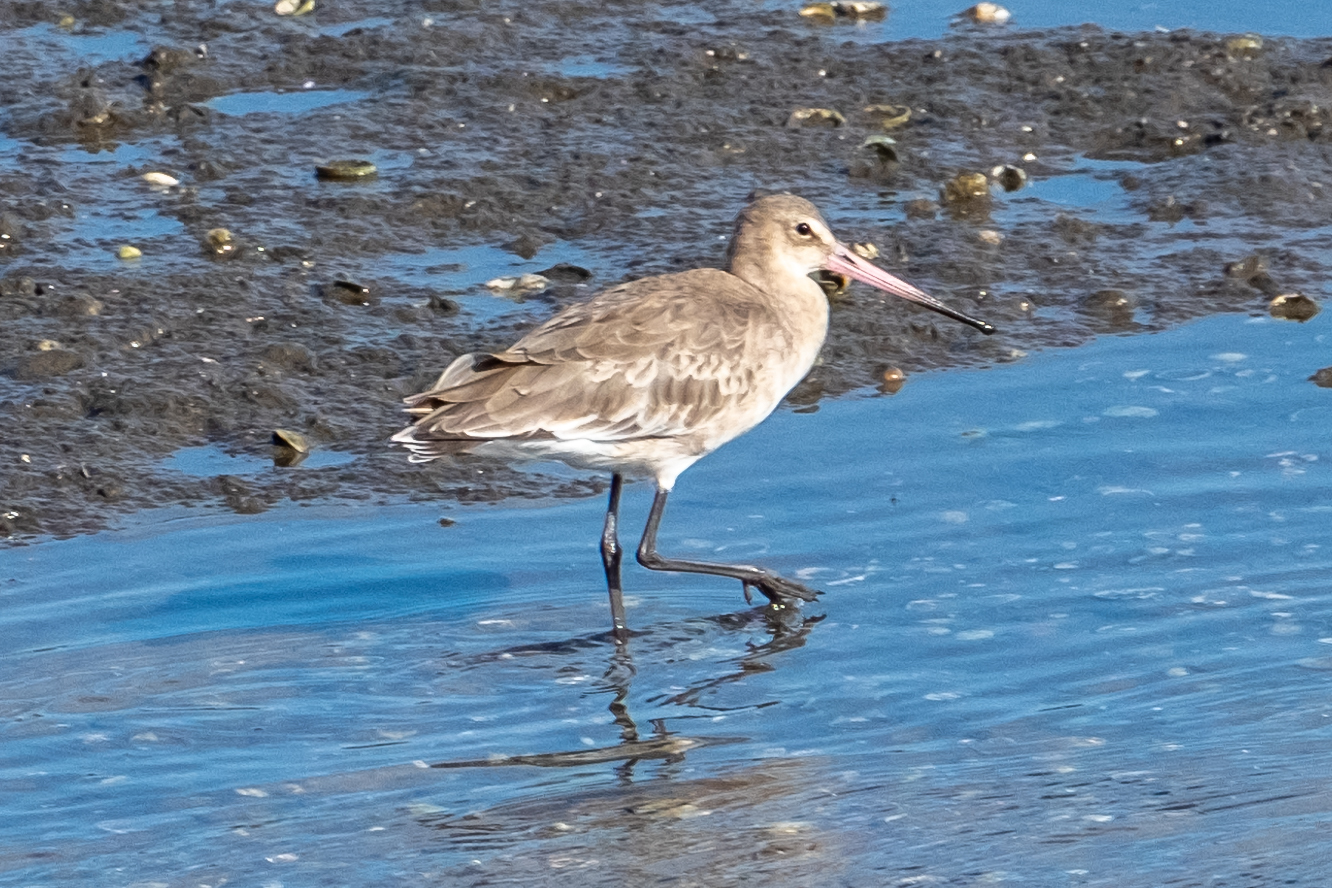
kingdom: Animalia
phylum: Chordata
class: Aves
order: Charadriiformes
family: Scolopacidae
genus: Limosa
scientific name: Limosa limosa
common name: Black-tailed godwit
